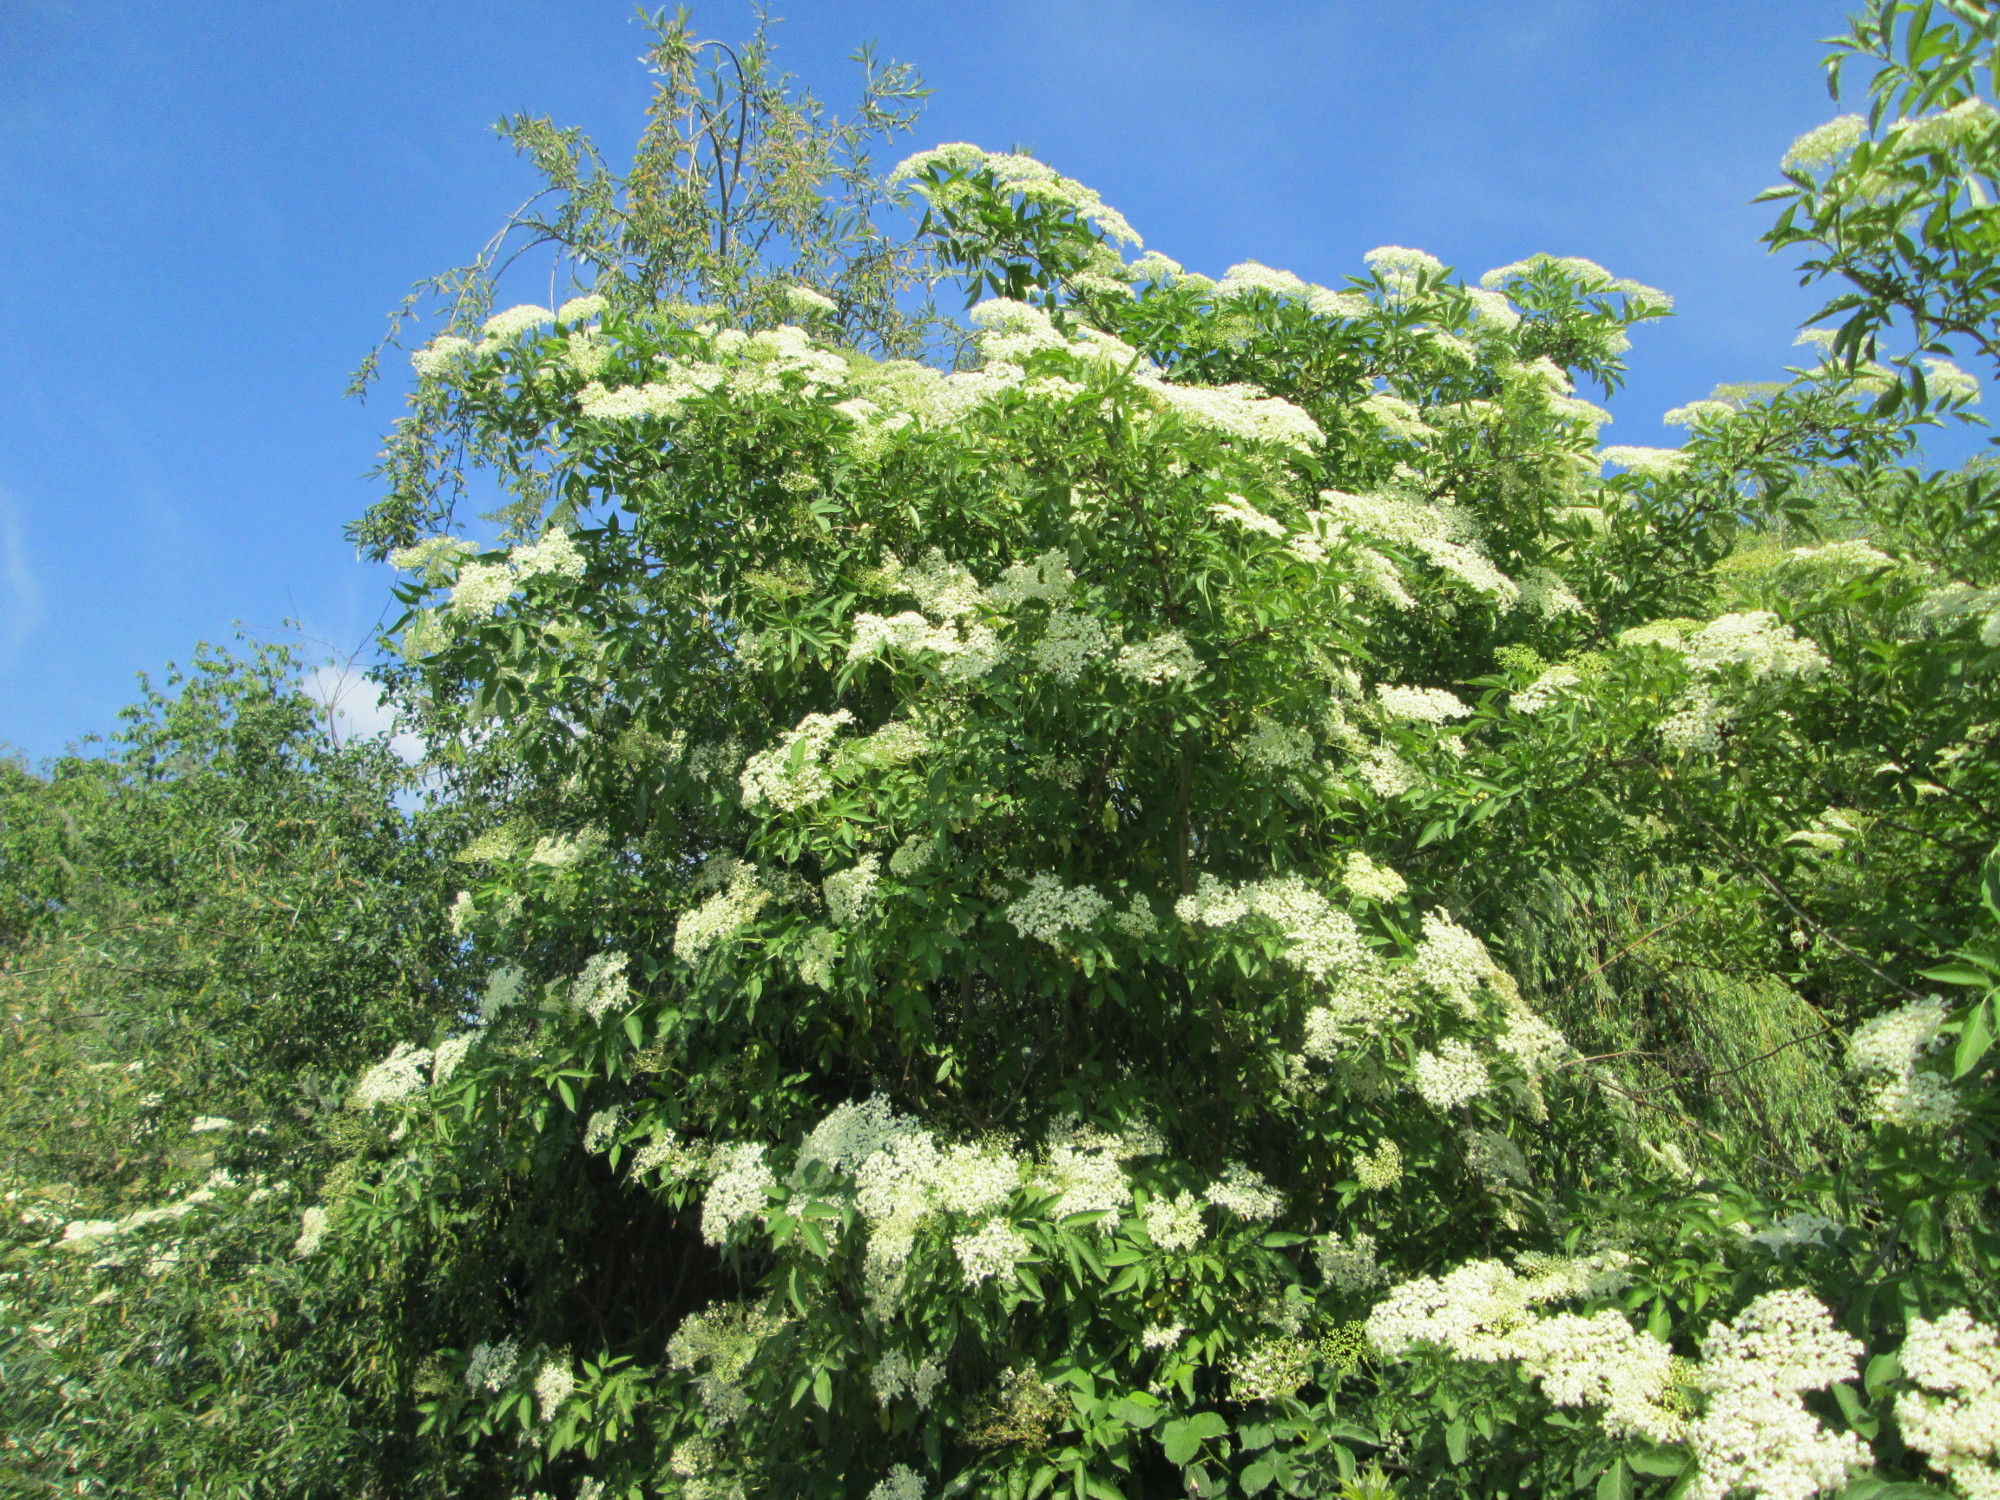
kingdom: Plantae
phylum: Tracheophyta
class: Magnoliopsida
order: Dipsacales
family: Viburnaceae
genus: Sambucus
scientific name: Sambucus nigra
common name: Elder
